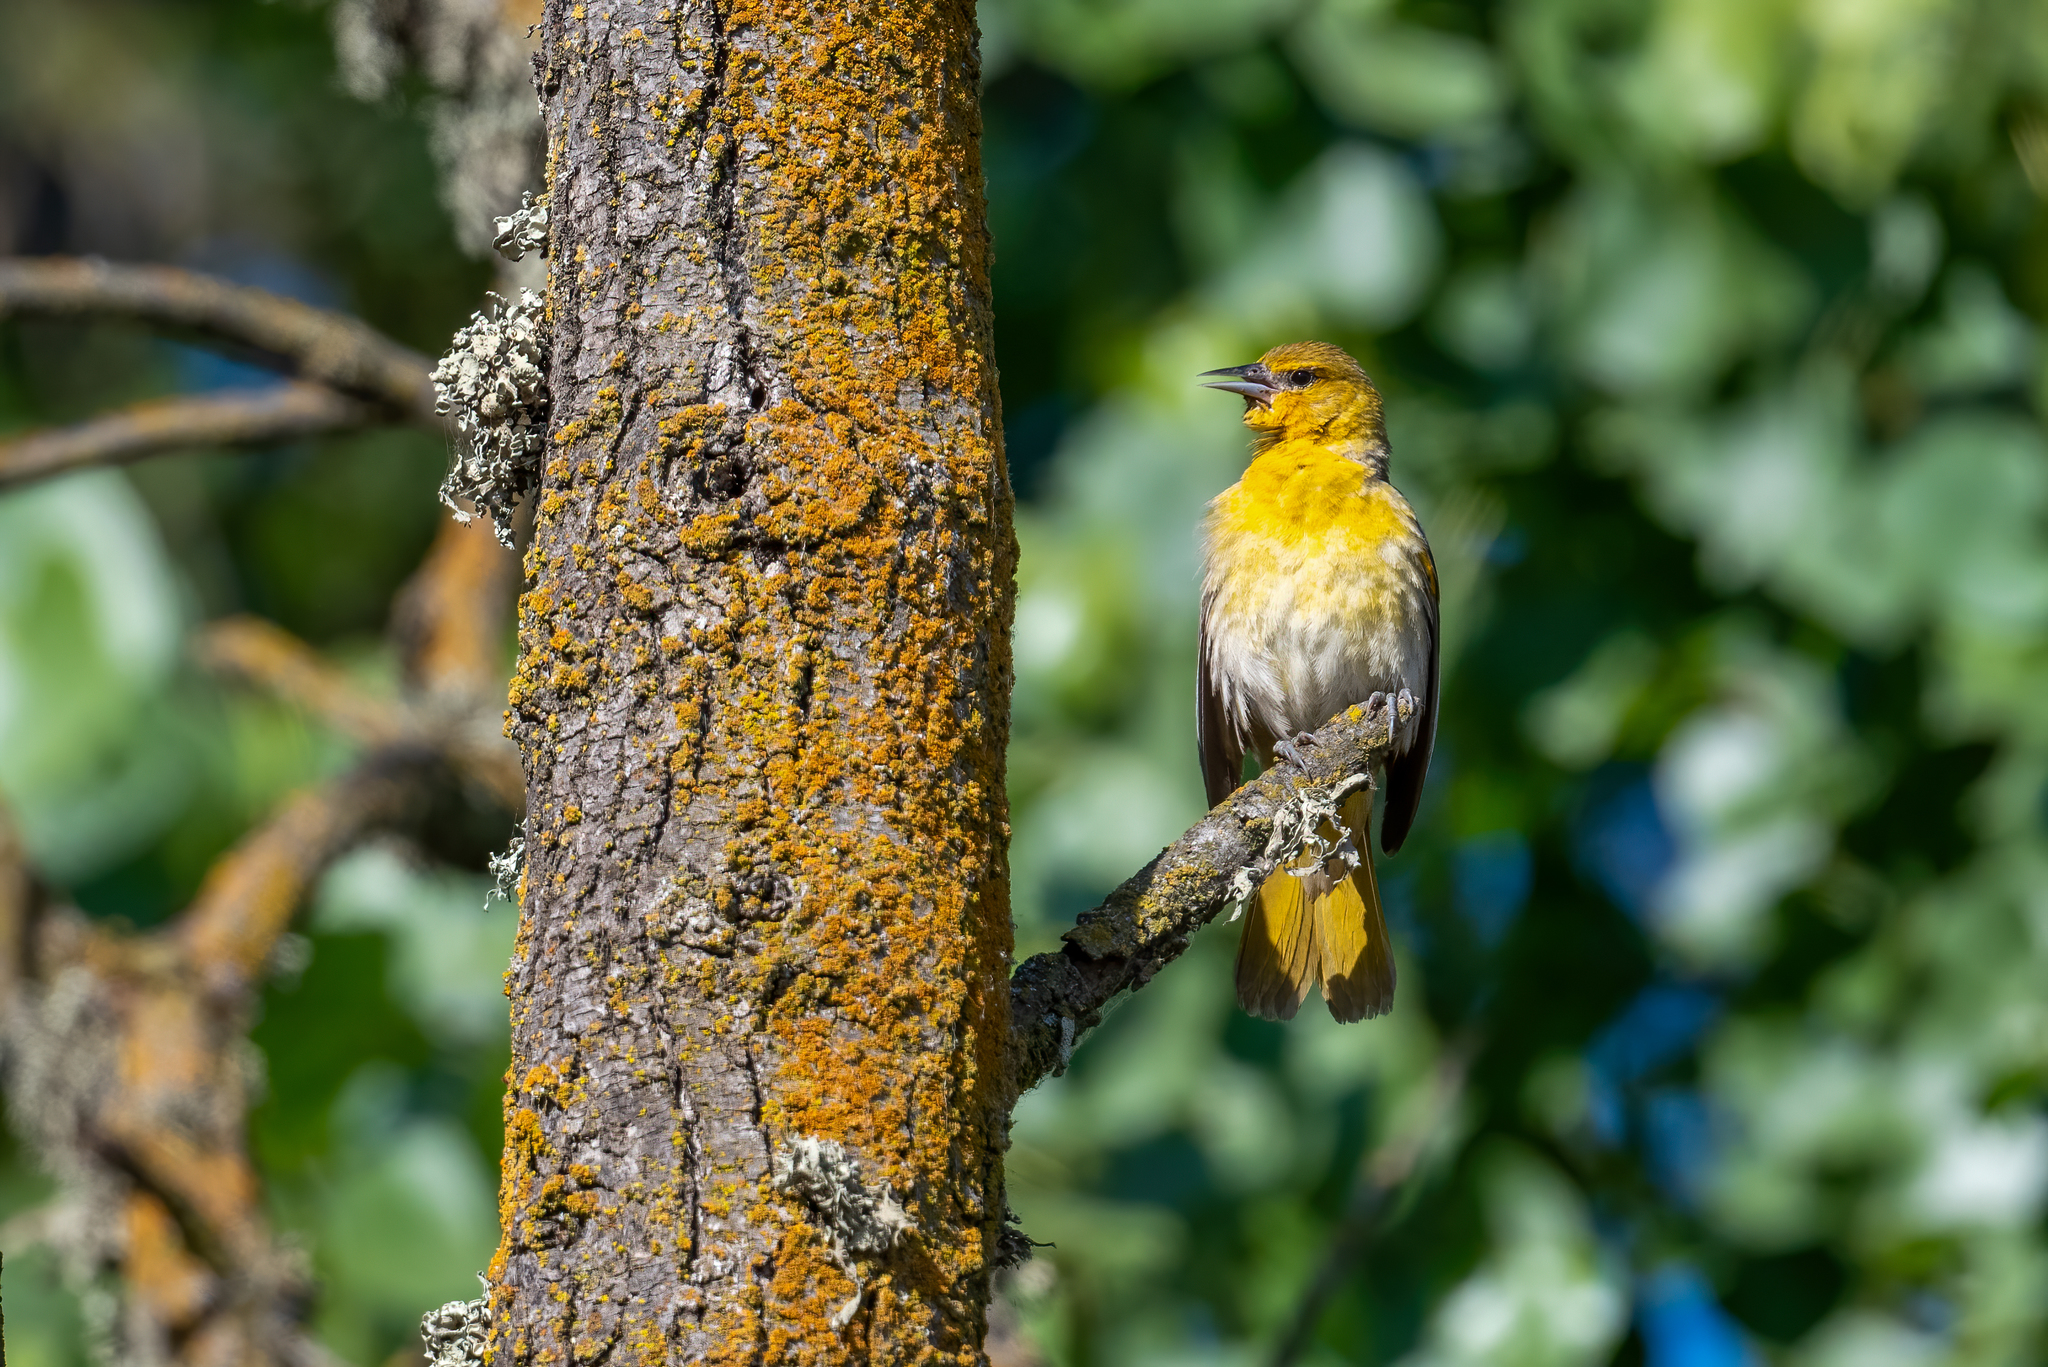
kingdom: Animalia
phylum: Chordata
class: Aves
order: Passeriformes
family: Icteridae
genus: Icterus
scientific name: Icterus bullockii
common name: Bullock's oriole
